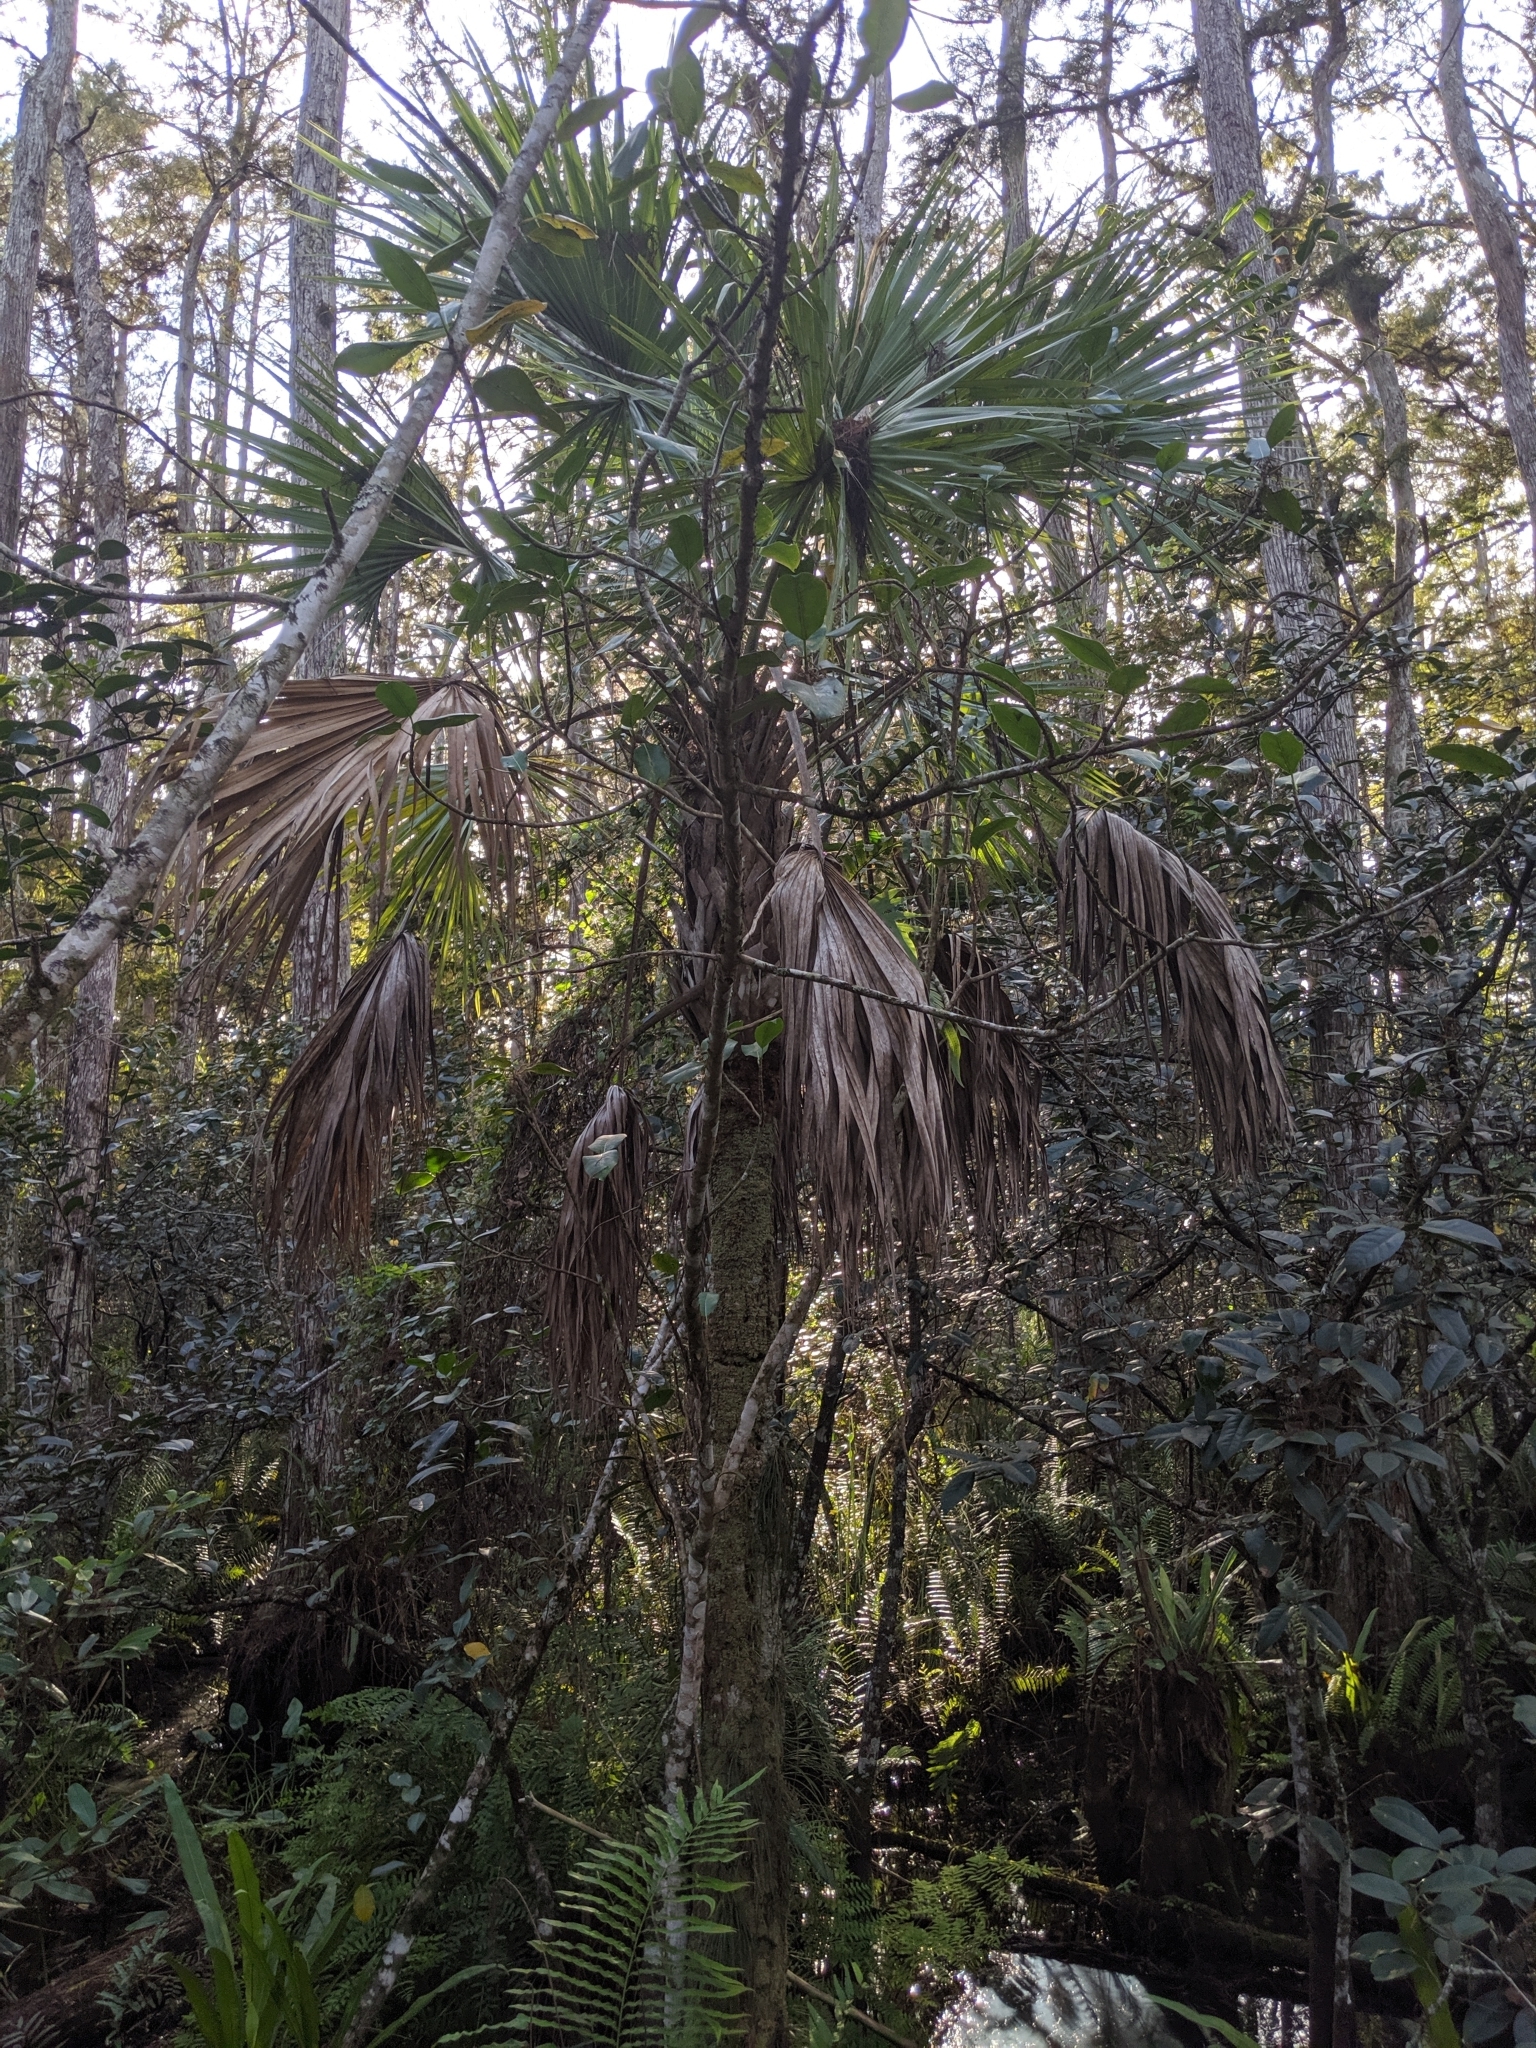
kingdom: Plantae
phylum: Tracheophyta
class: Liliopsida
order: Arecales
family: Arecaceae
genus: Sabal
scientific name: Sabal palmetto
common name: Blue palmetto
